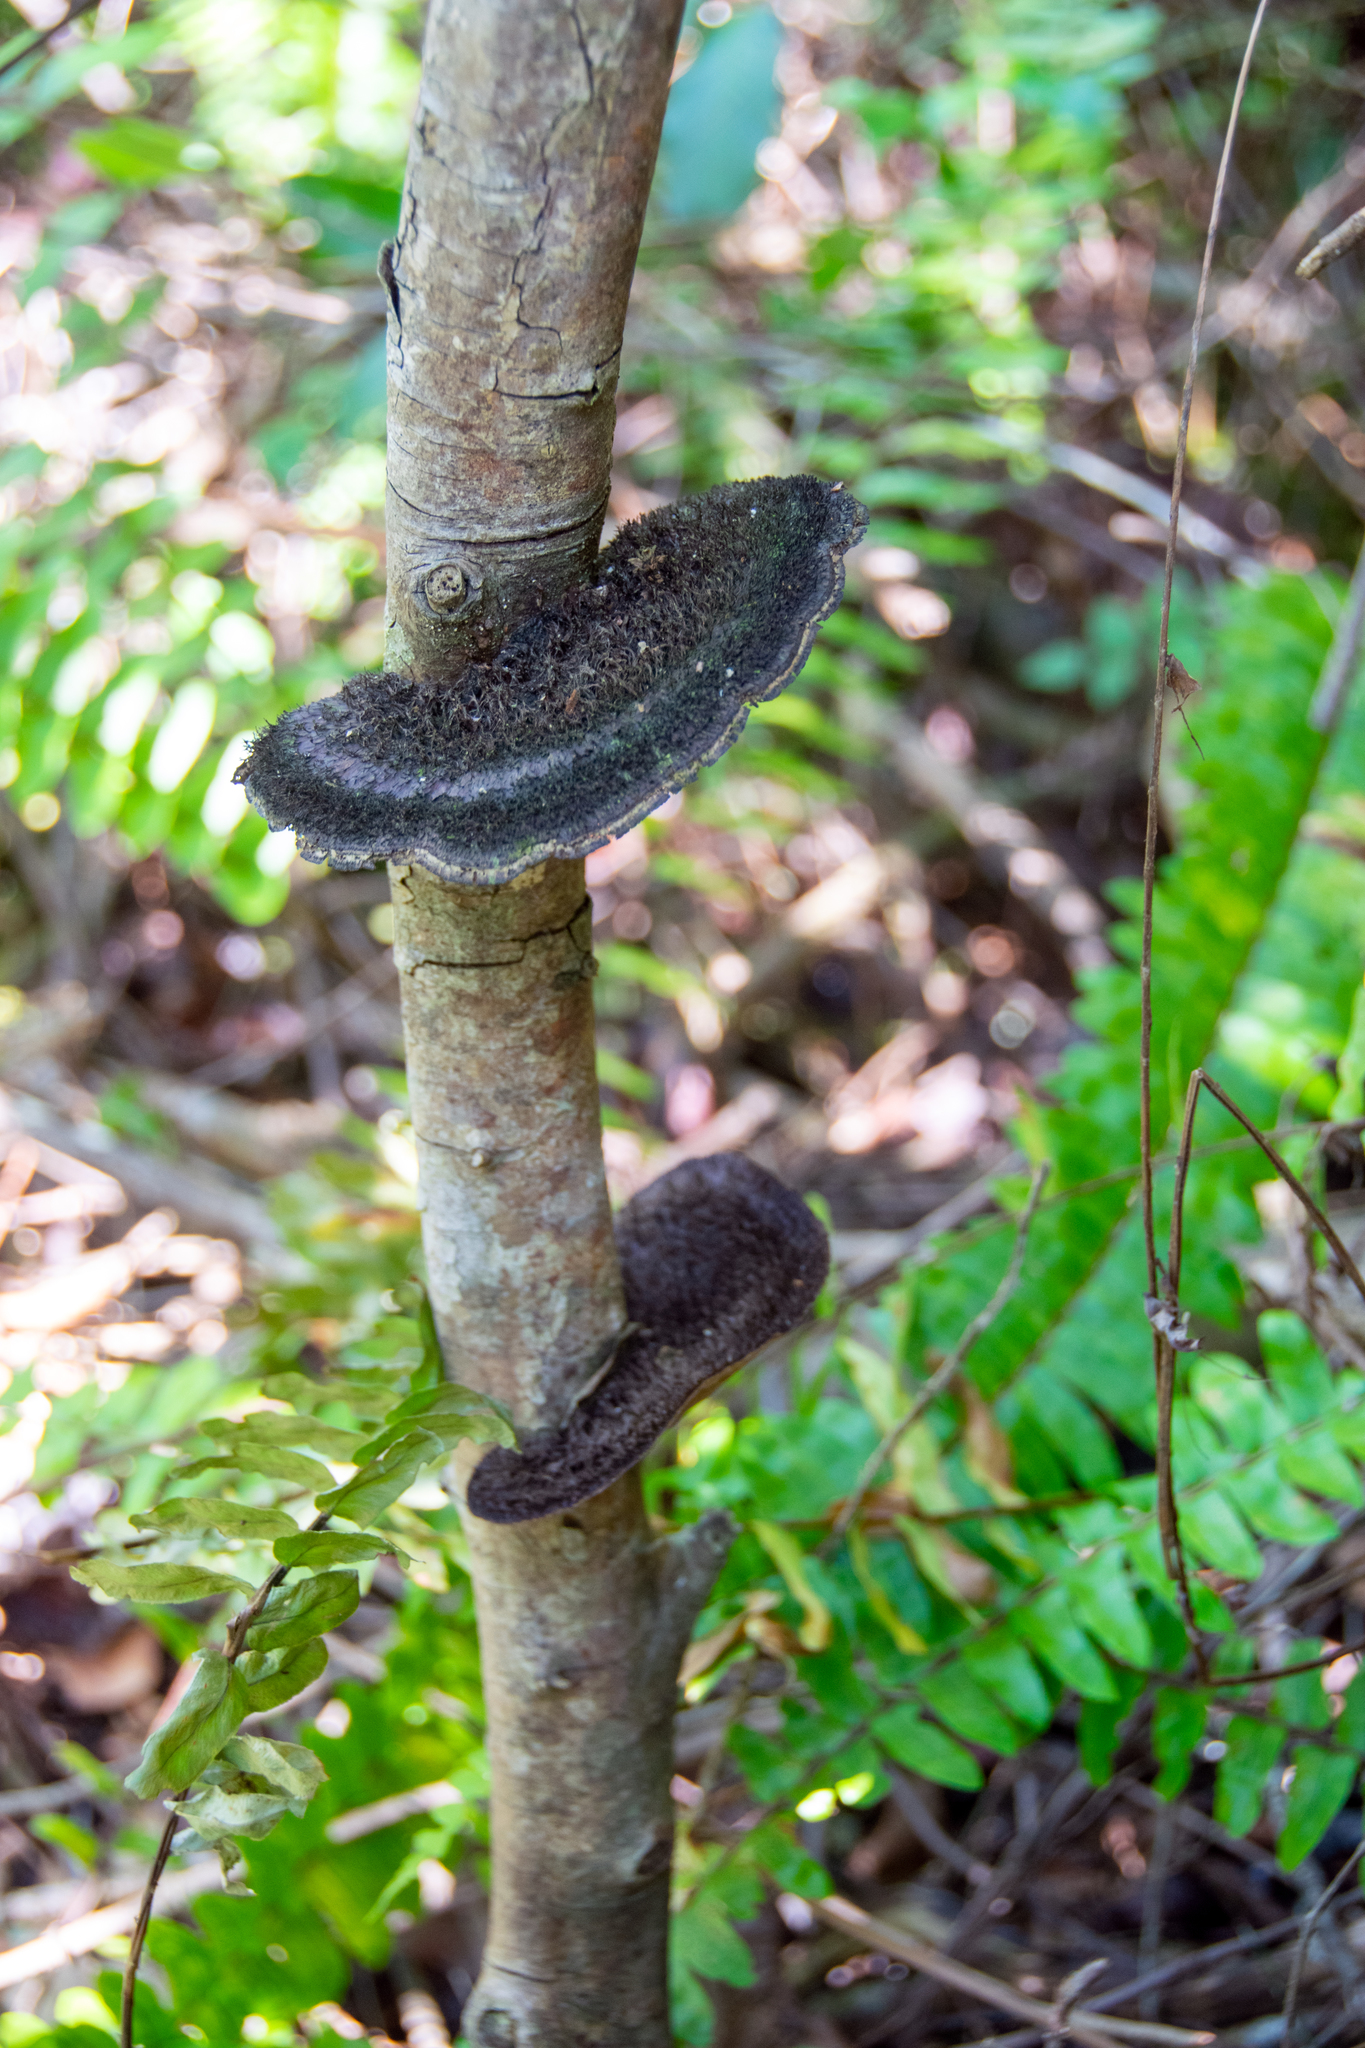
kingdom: Fungi
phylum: Basidiomycota
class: Agaricomycetes
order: Polyporales
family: Cerrenaceae
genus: Cerrena
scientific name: Cerrena hydnoides
